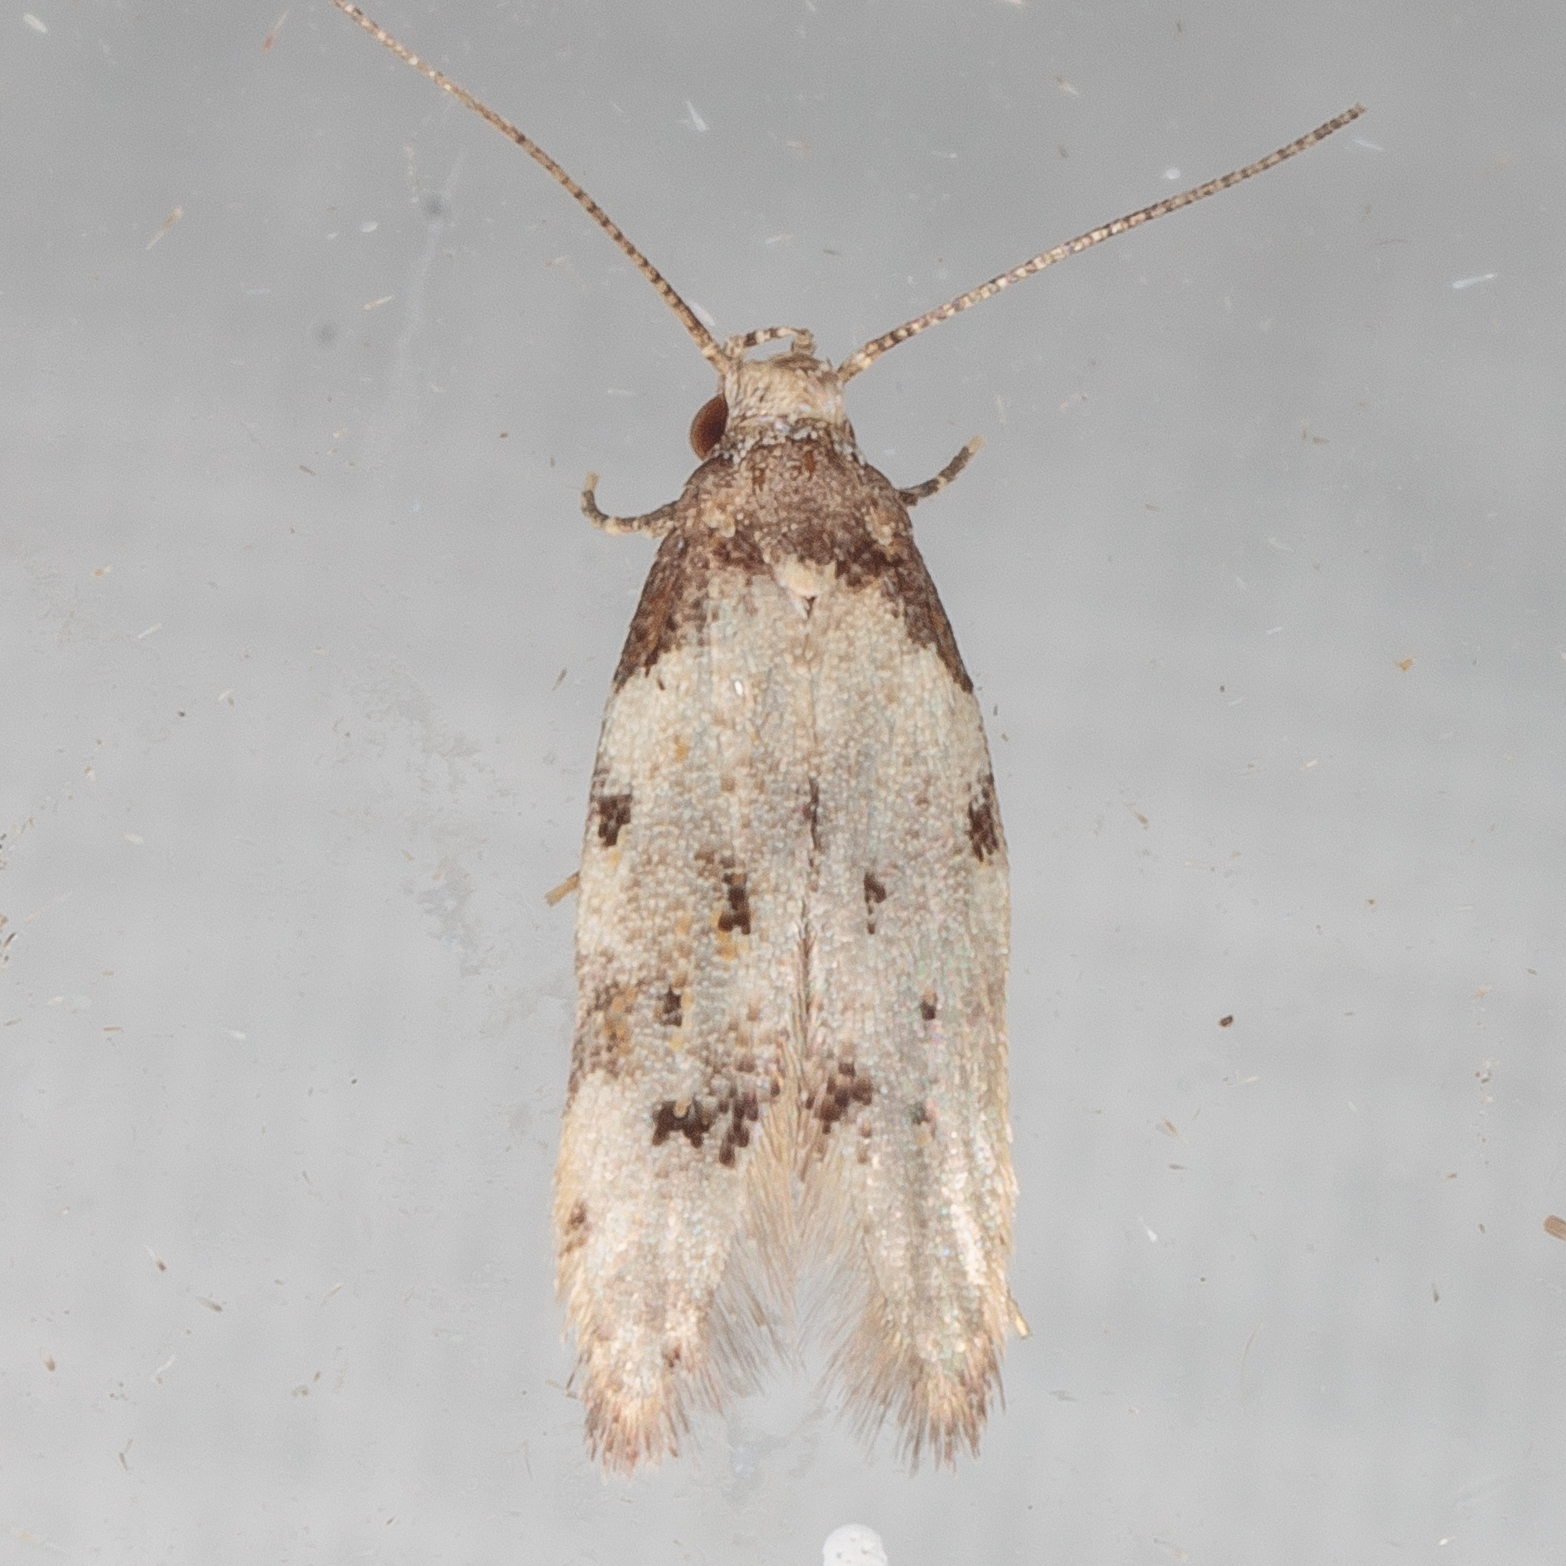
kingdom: Animalia
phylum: Arthropoda
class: Insecta
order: Lepidoptera
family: Autostichidae
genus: Taygete
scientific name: Taygete attributella
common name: Triangle-marked twirler moth
